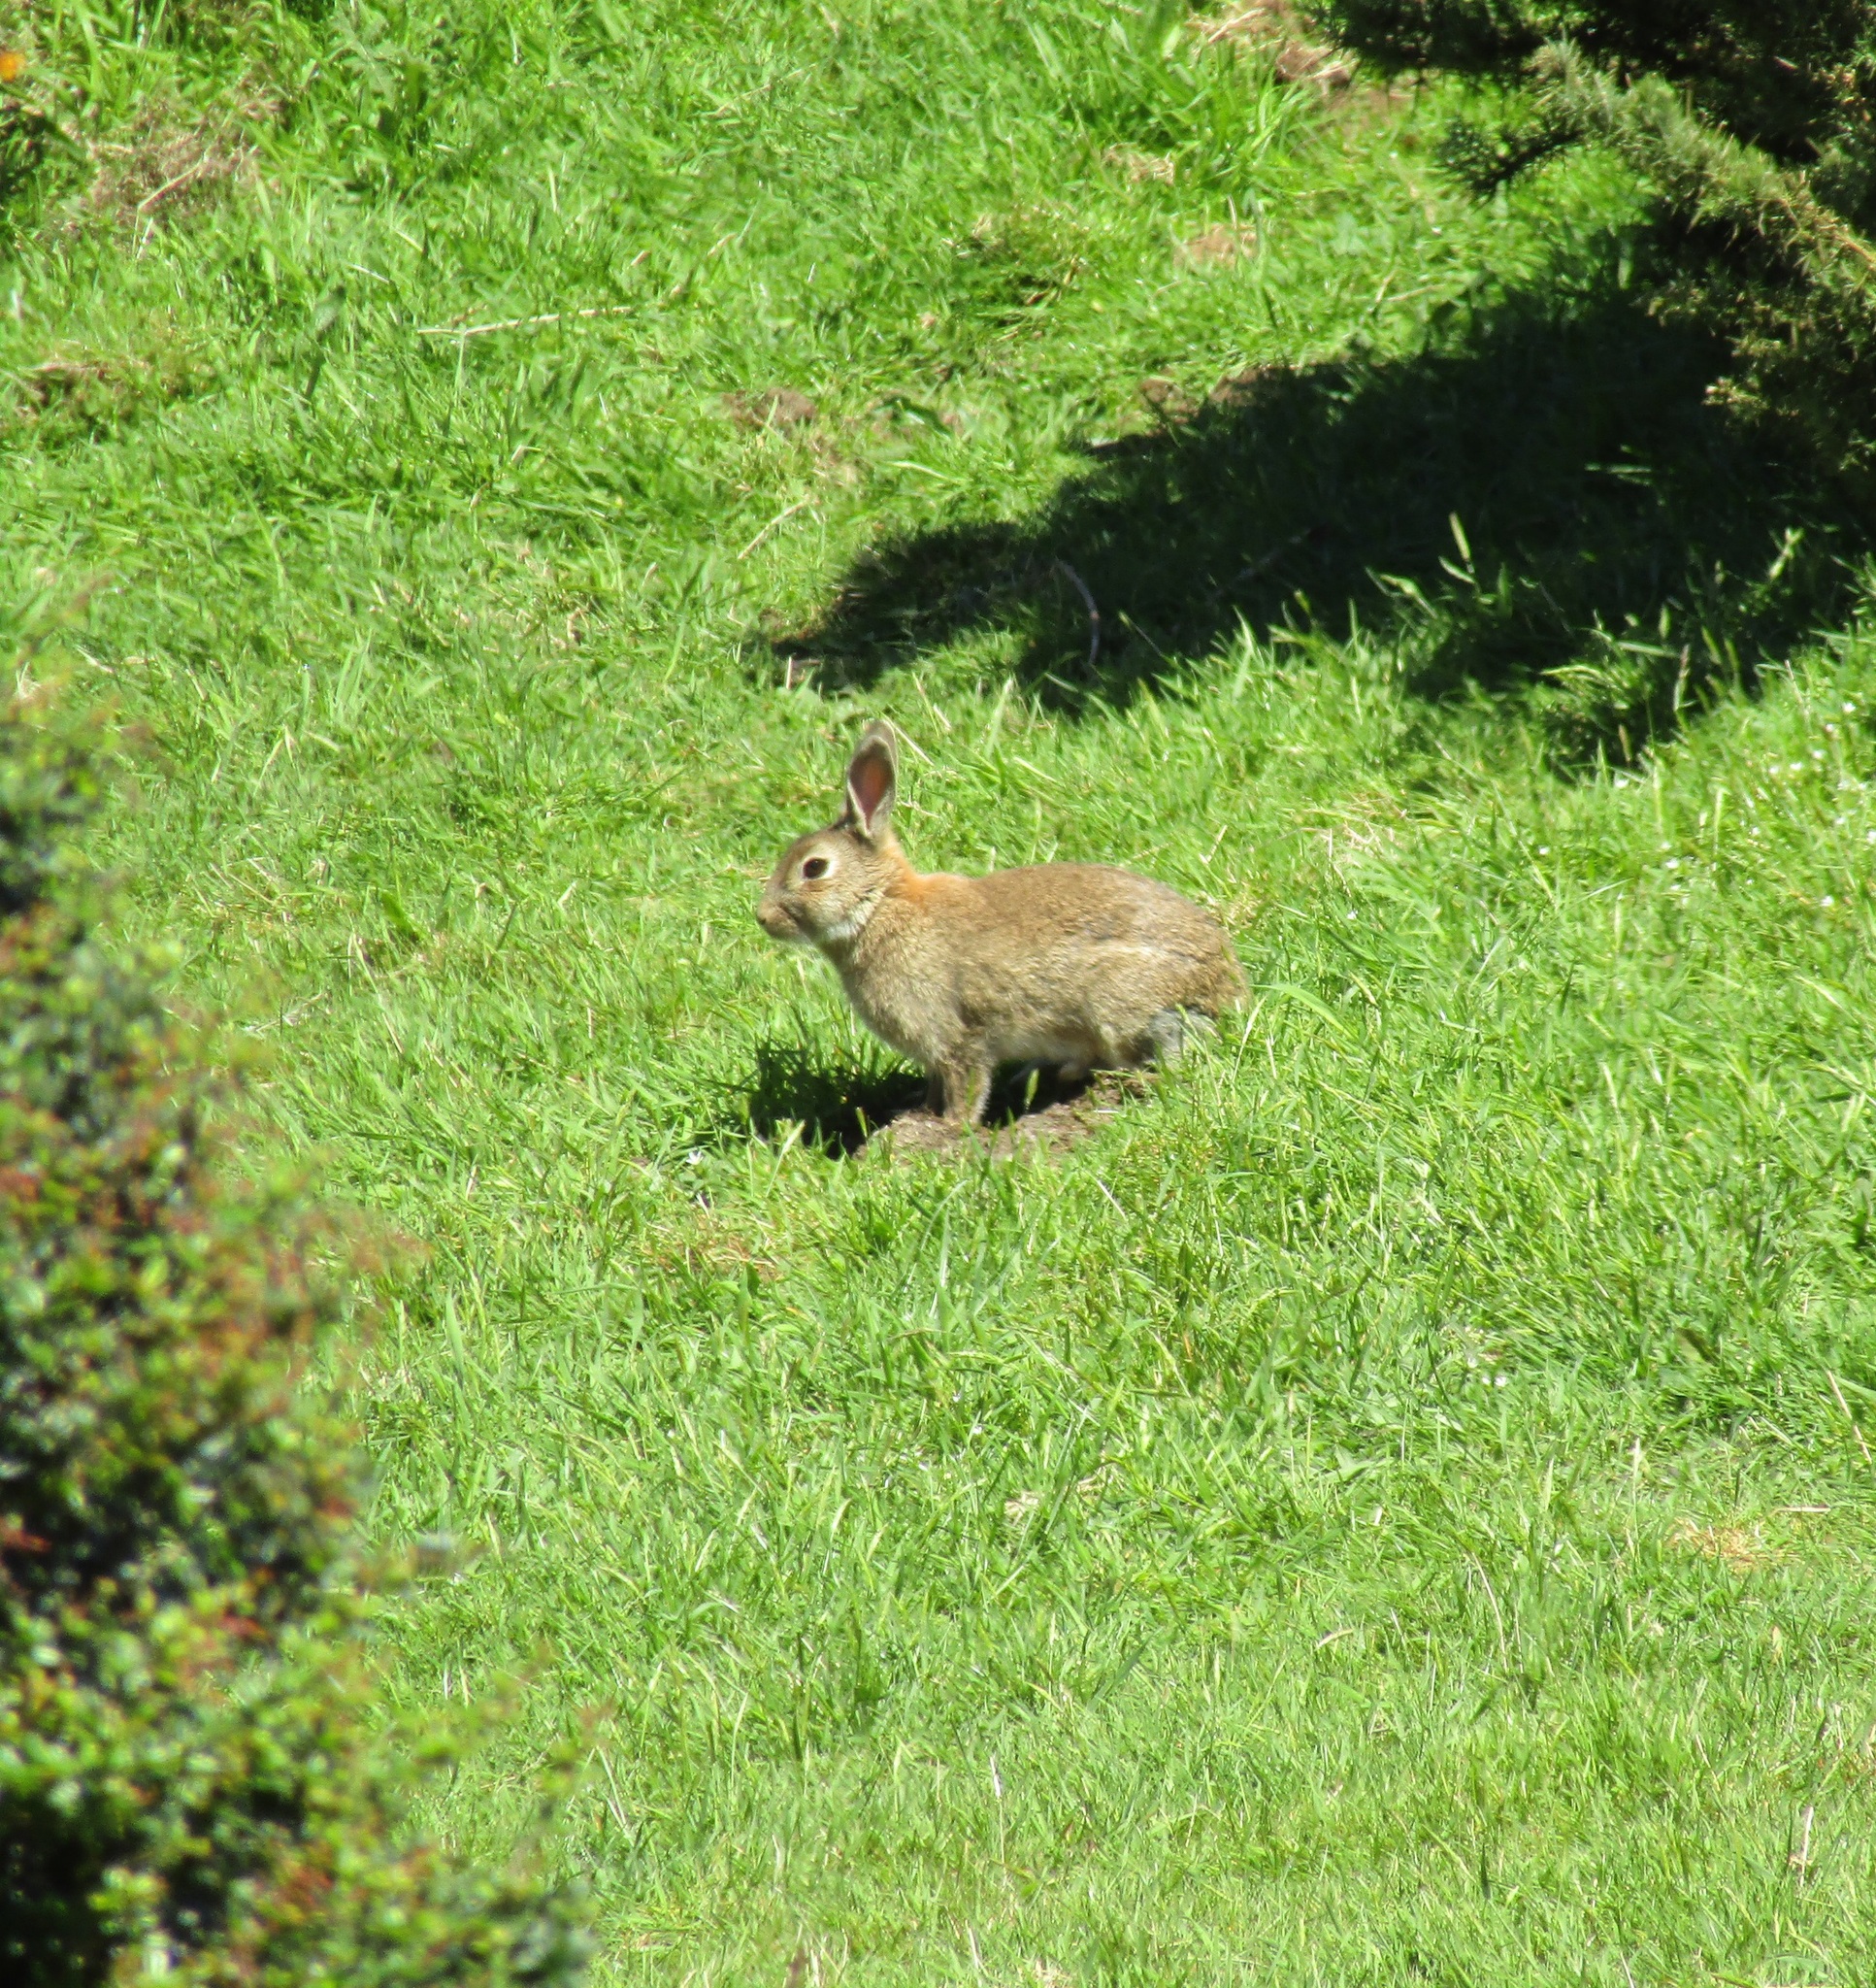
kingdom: Animalia
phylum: Chordata
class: Mammalia
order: Lagomorpha
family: Leporidae
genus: Oryctolagus
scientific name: Oryctolagus cuniculus
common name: European rabbit
